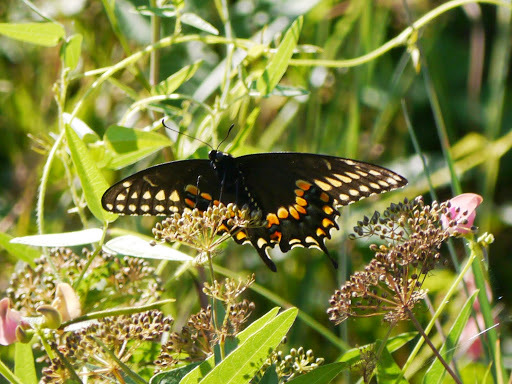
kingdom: Animalia
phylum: Arthropoda
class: Insecta
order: Lepidoptera
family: Papilionidae
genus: Papilio
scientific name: Papilio polyxenes
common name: Black swallowtail
